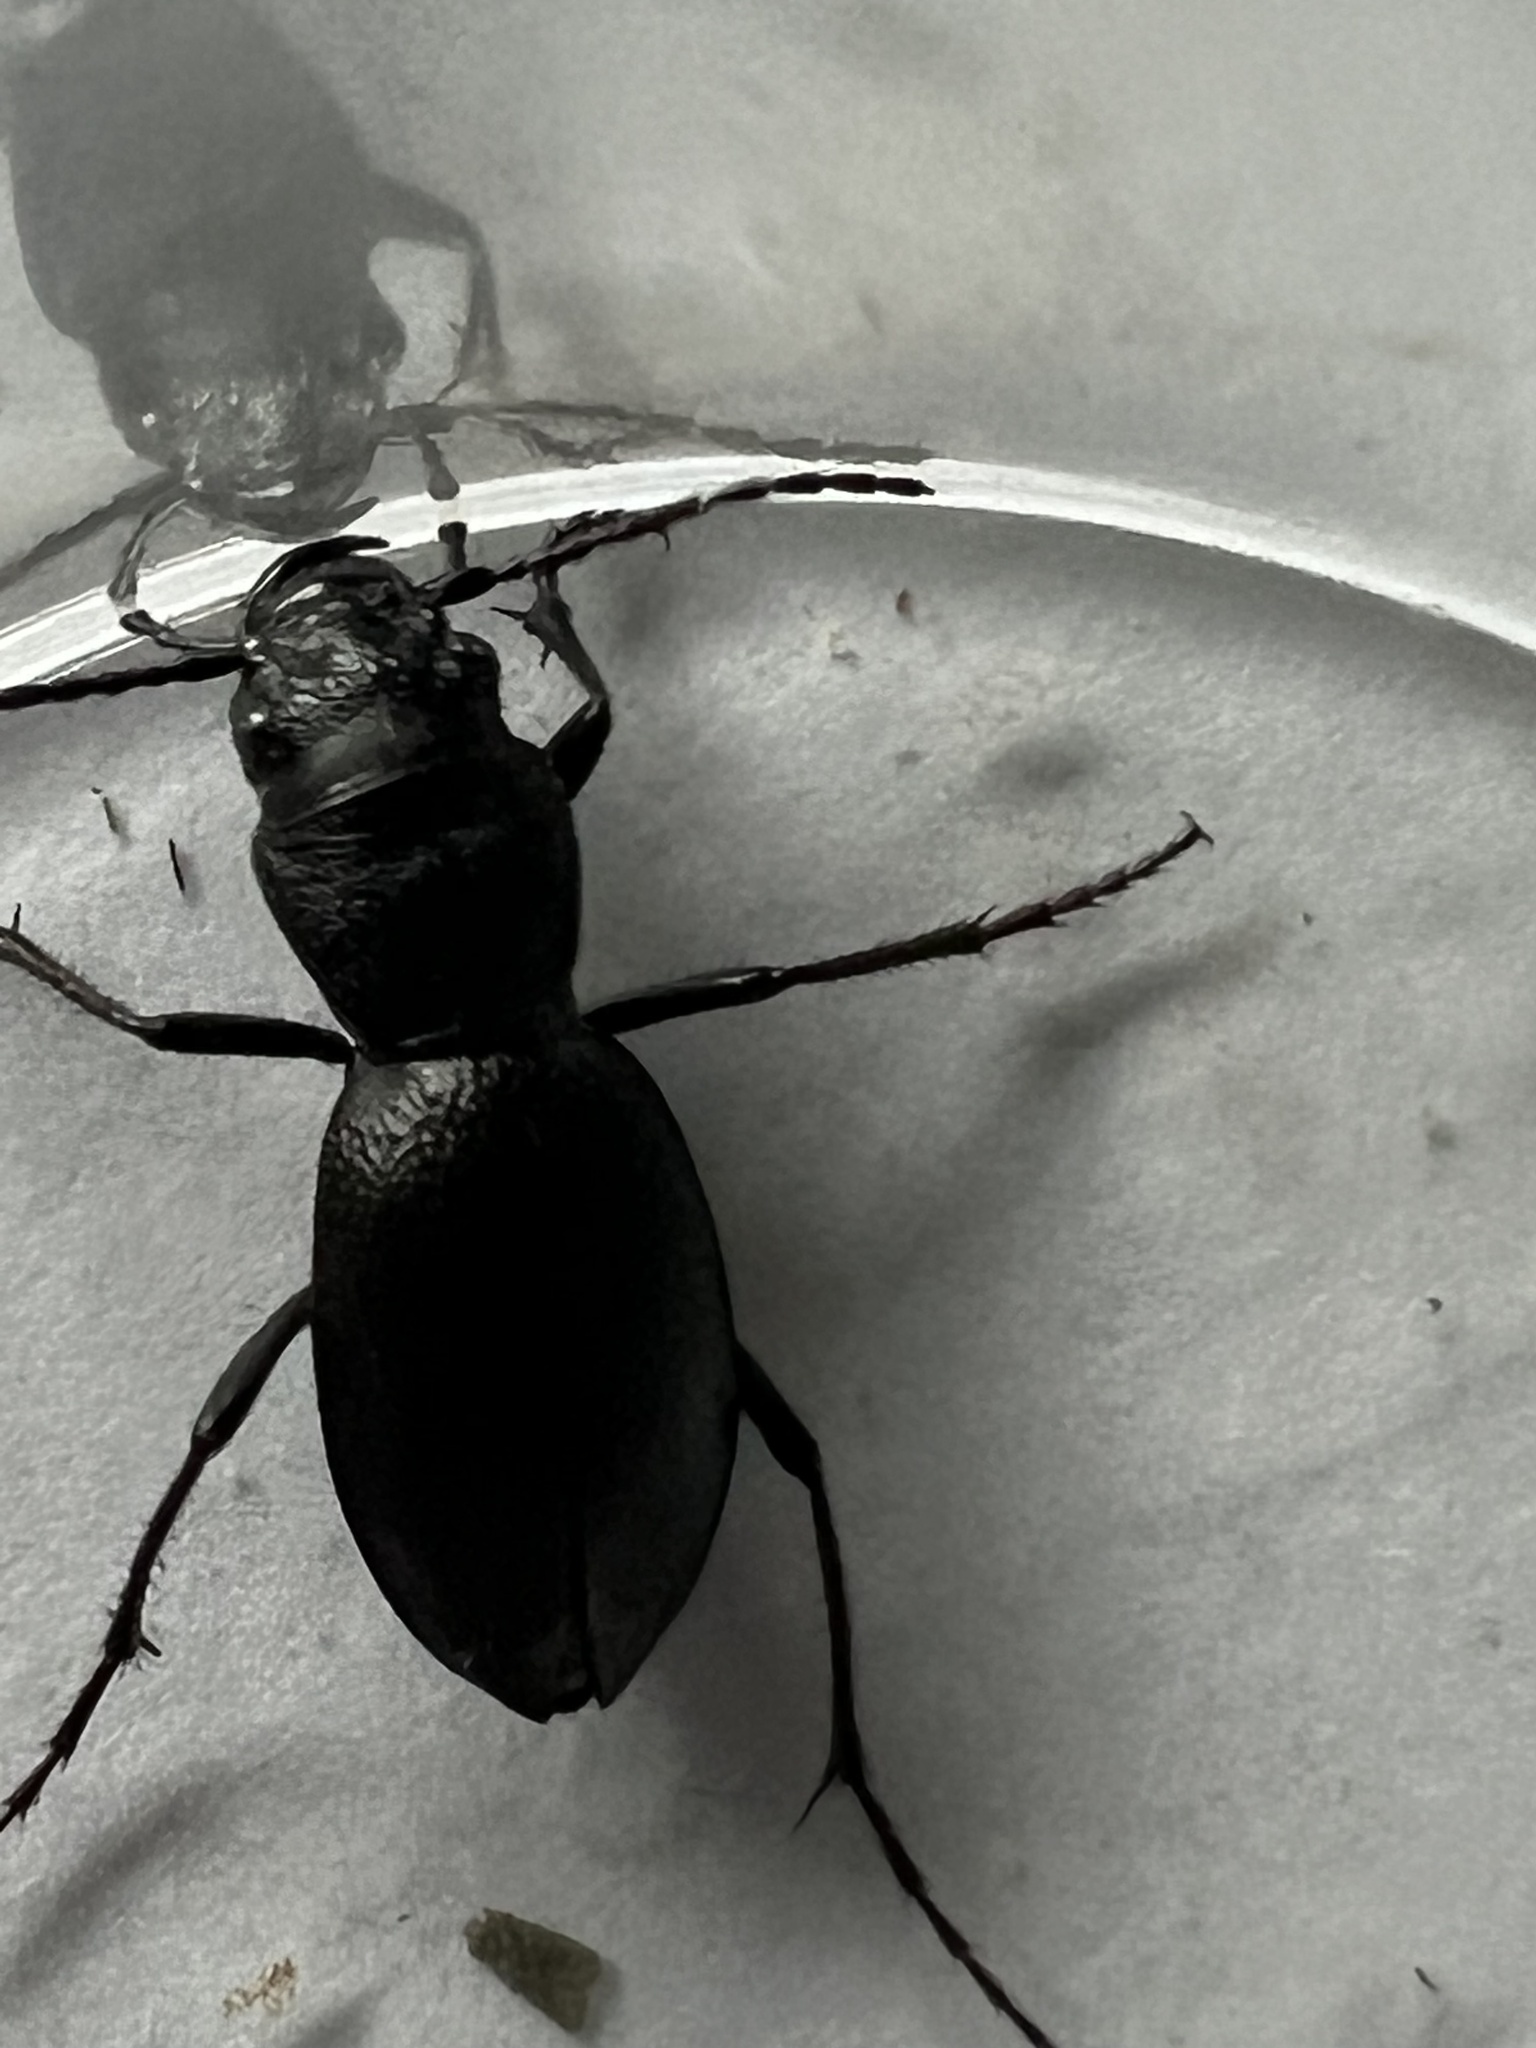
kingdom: Animalia
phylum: Arthropoda
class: Insecta
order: Coleoptera
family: Carabidae
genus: Omus
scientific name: Omus californicus
